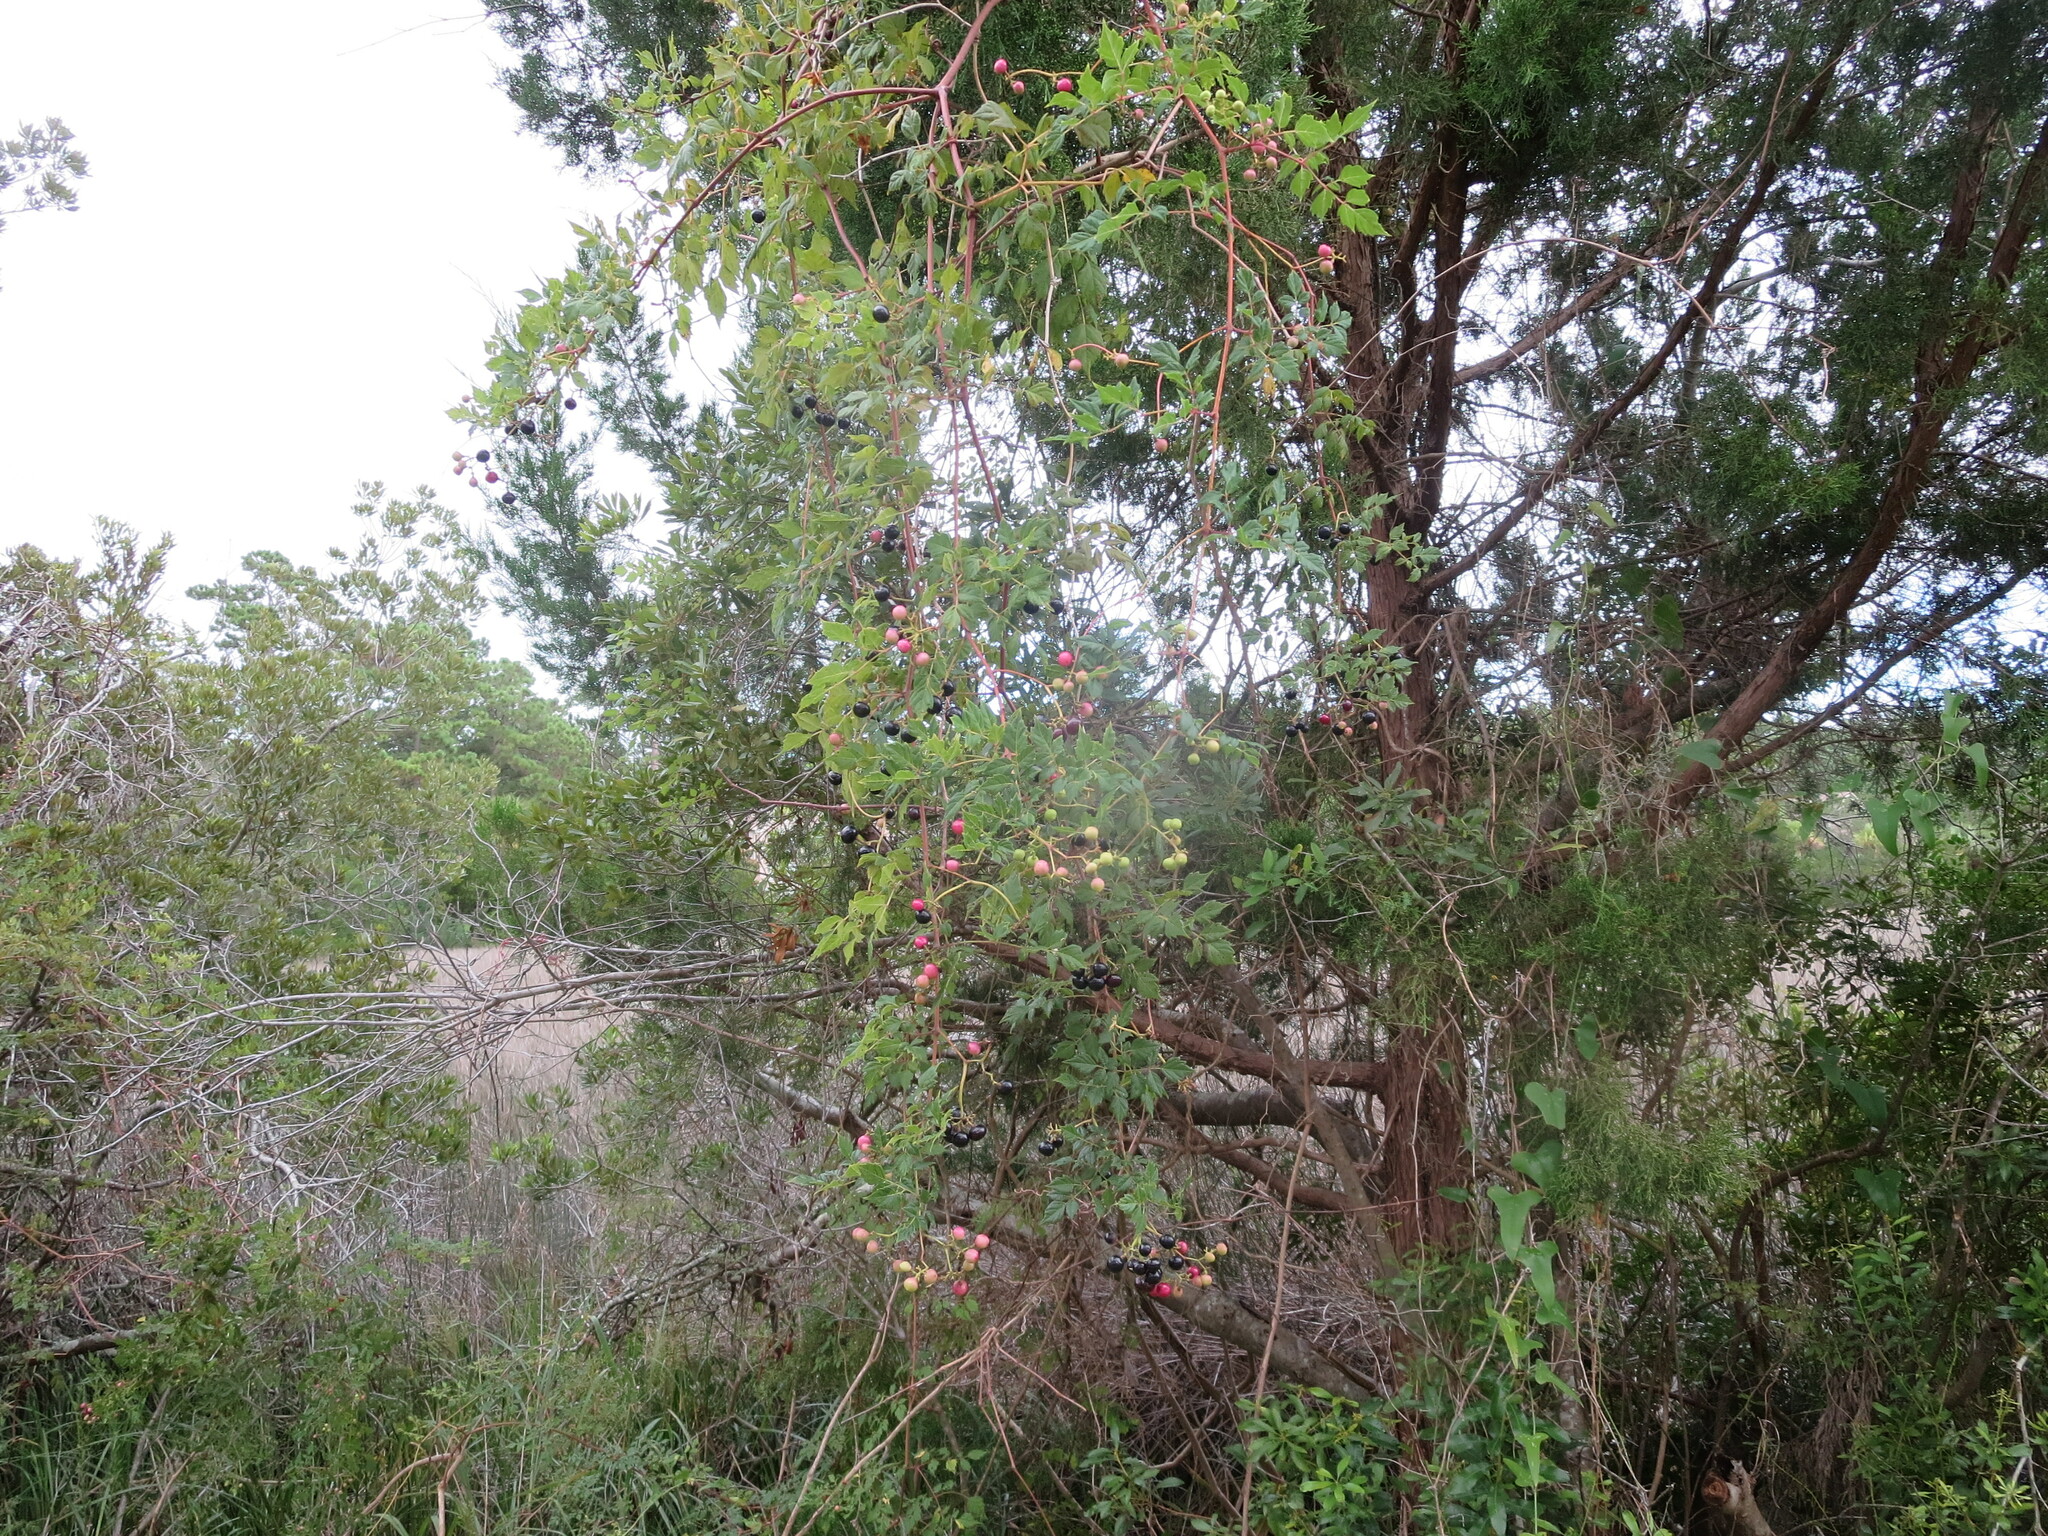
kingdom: Plantae
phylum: Tracheophyta
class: Magnoliopsida
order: Vitales
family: Vitaceae
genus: Nekemias
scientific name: Nekemias arborea
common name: Peppervine
